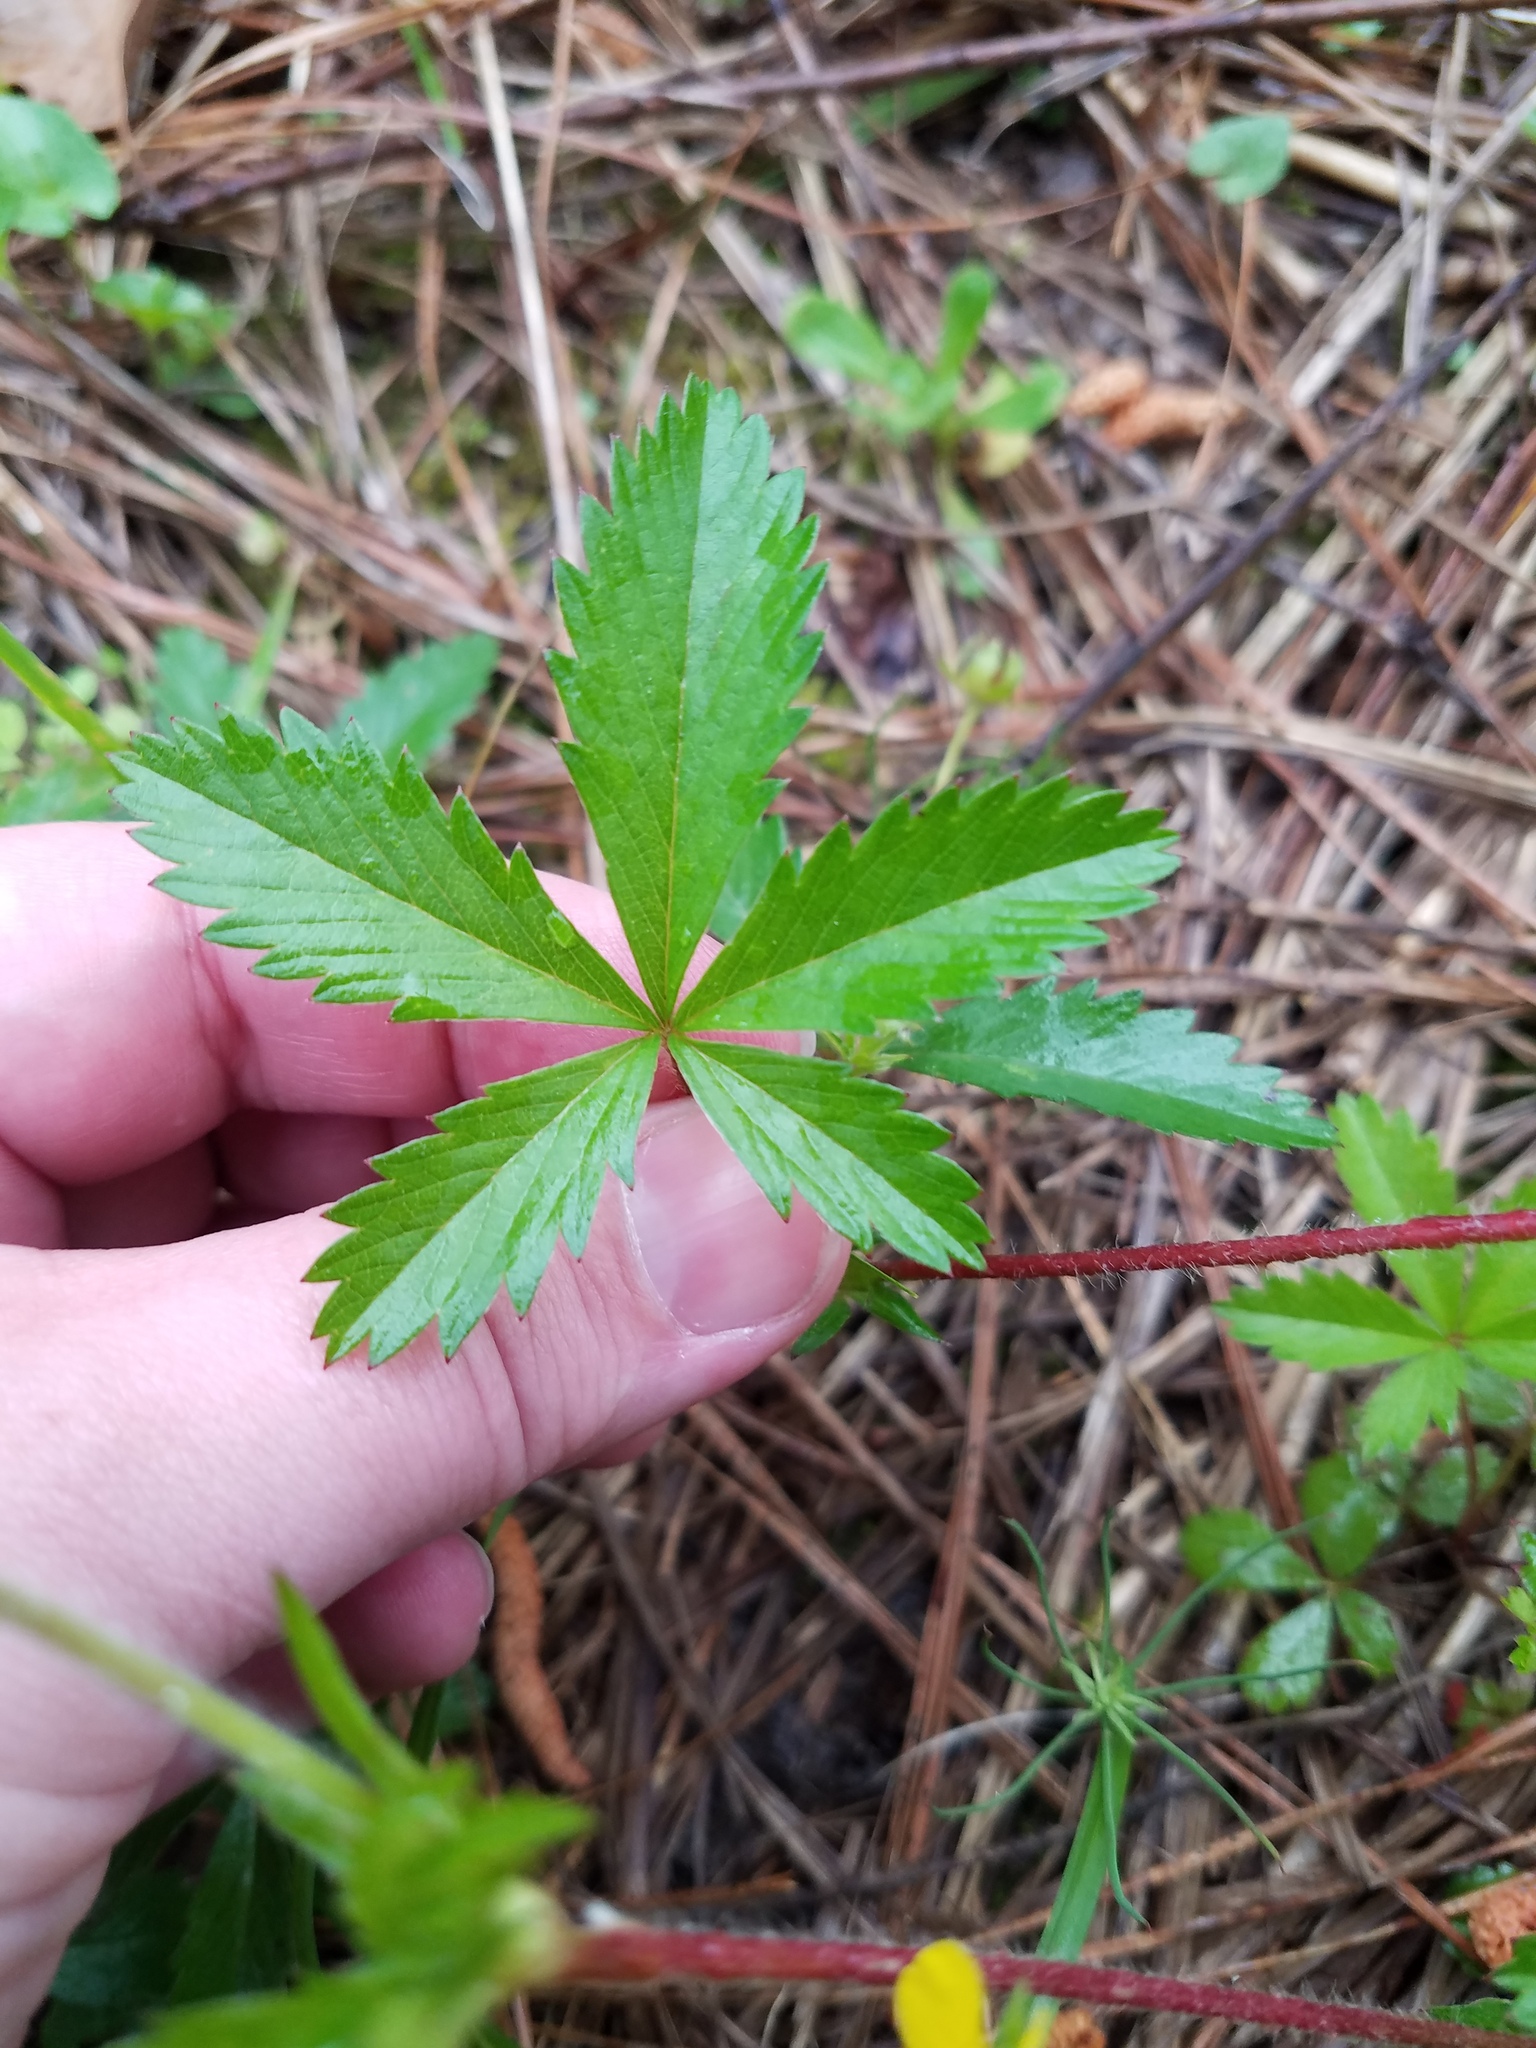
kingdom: Plantae
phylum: Tracheophyta
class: Magnoliopsida
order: Rosales
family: Rosaceae
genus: Potentilla
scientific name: Potentilla simplex
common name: Old field cinquefoil
